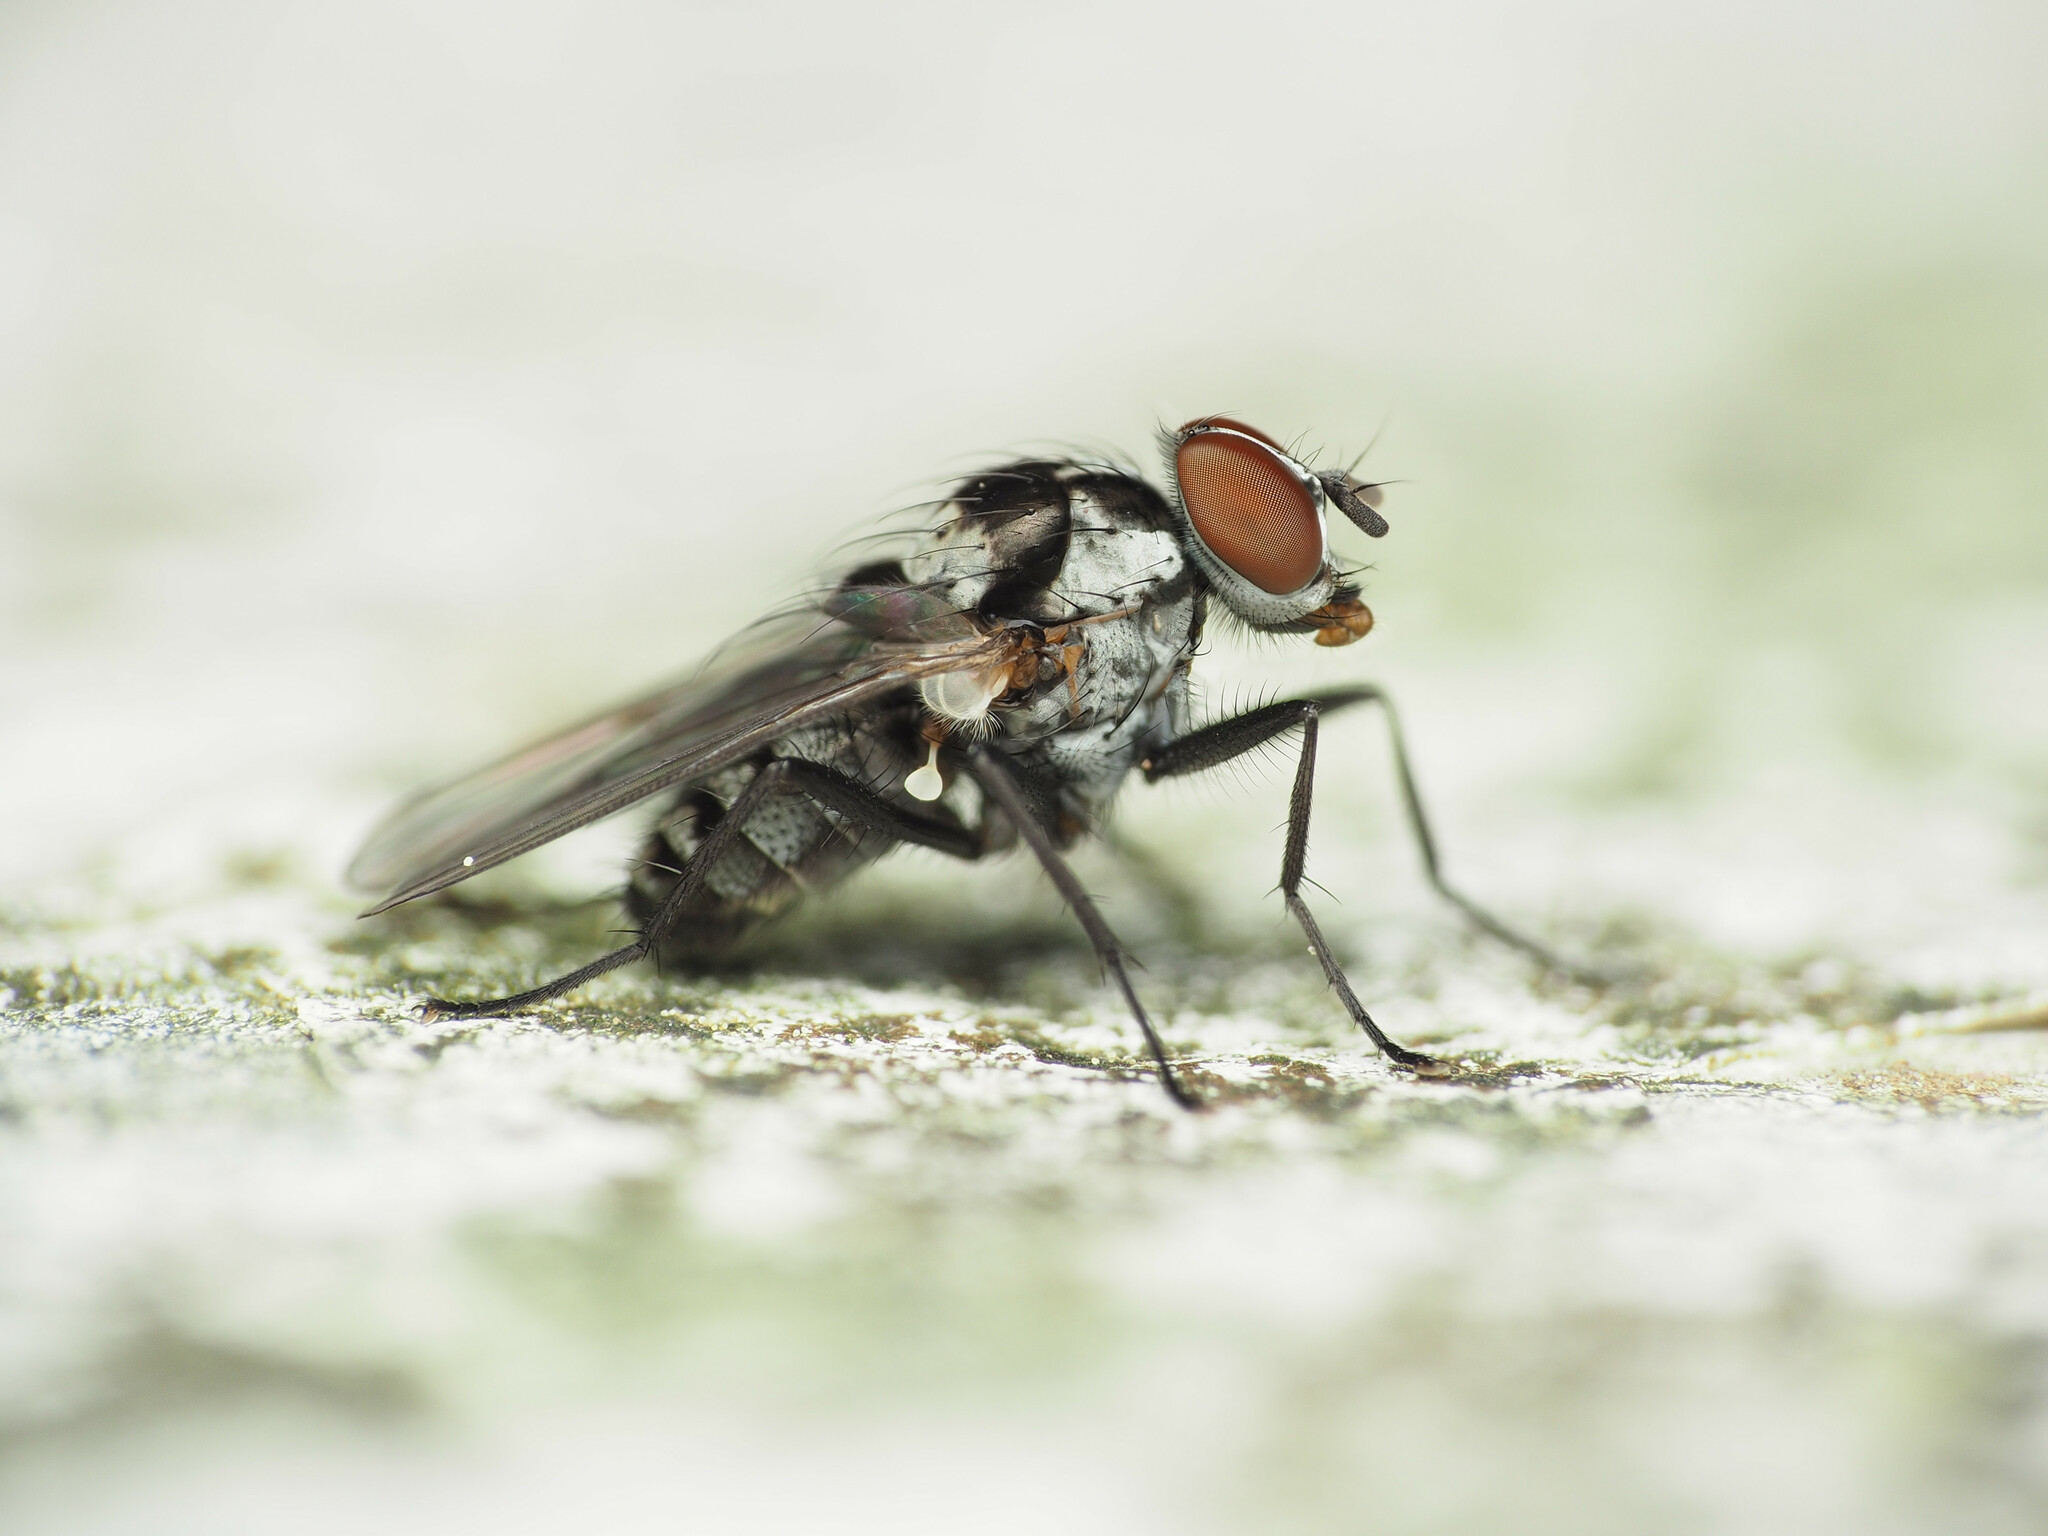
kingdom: Animalia
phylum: Arthropoda
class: Insecta
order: Diptera
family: Anthomyiidae
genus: Anthomyia
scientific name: Anthomyia oculifera
